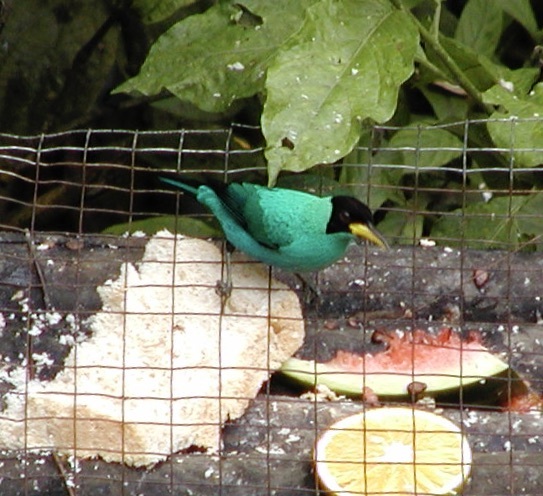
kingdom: Animalia
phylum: Chordata
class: Aves
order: Passeriformes
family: Thraupidae
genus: Chlorophanes
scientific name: Chlorophanes spiza
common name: Green honeycreeper
